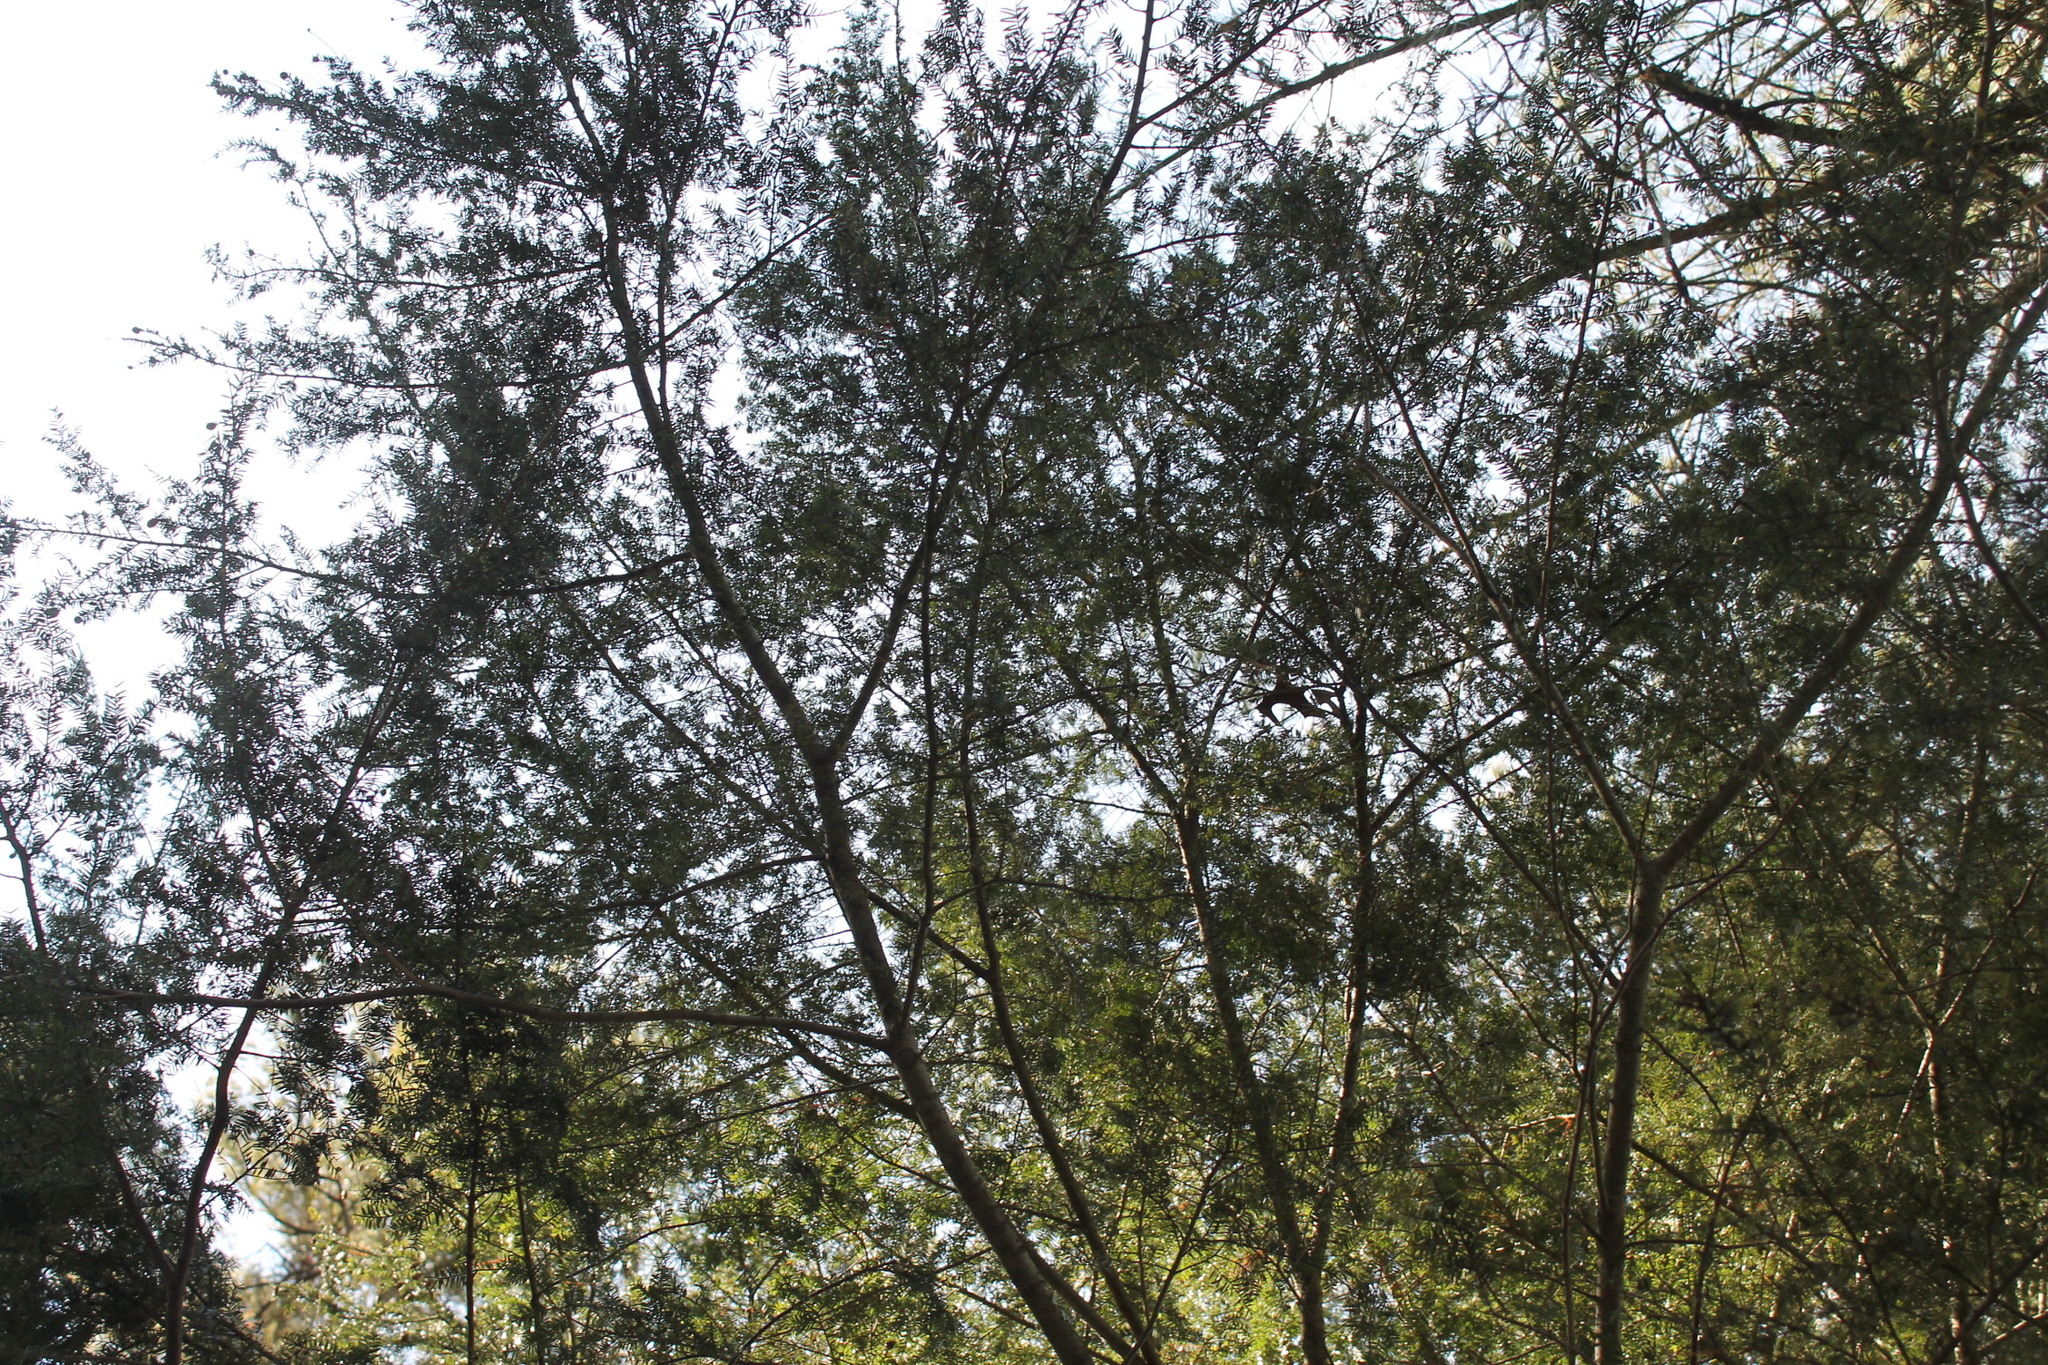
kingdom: Plantae
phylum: Tracheophyta
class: Pinopsida
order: Pinales
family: Pinaceae
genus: Tsuga
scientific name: Tsuga canadensis
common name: Eastern hemlock
